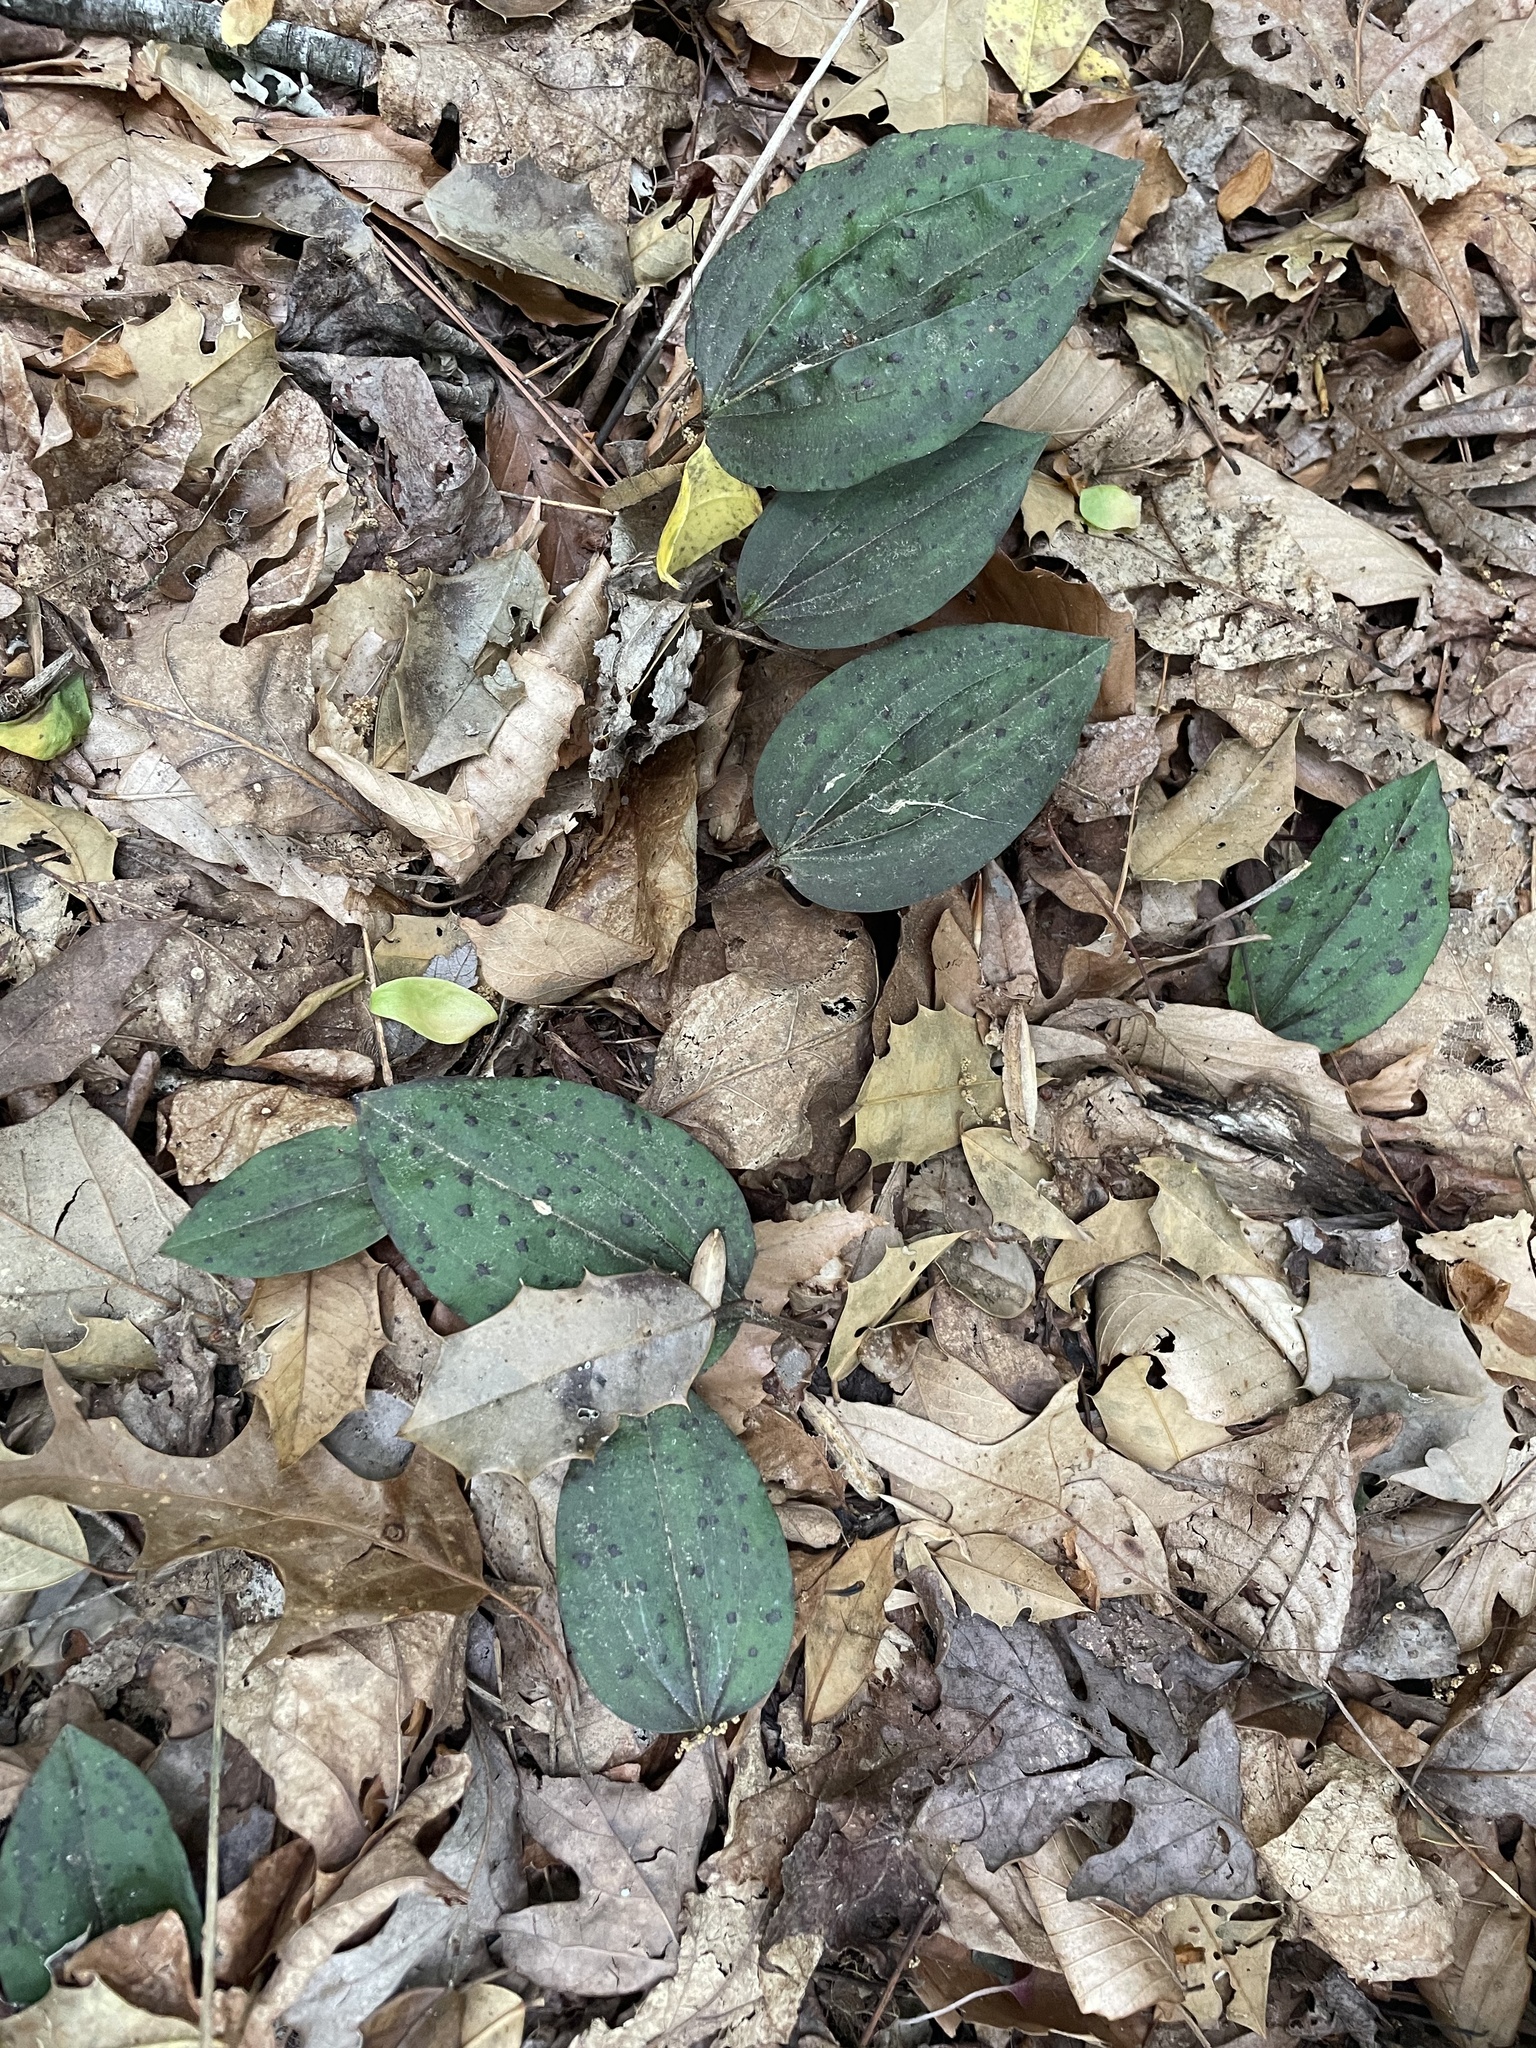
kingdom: Plantae
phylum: Tracheophyta
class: Liliopsida
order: Asparagales
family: Orchidaceae
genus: Tipularia
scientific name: Tipularia discolor
